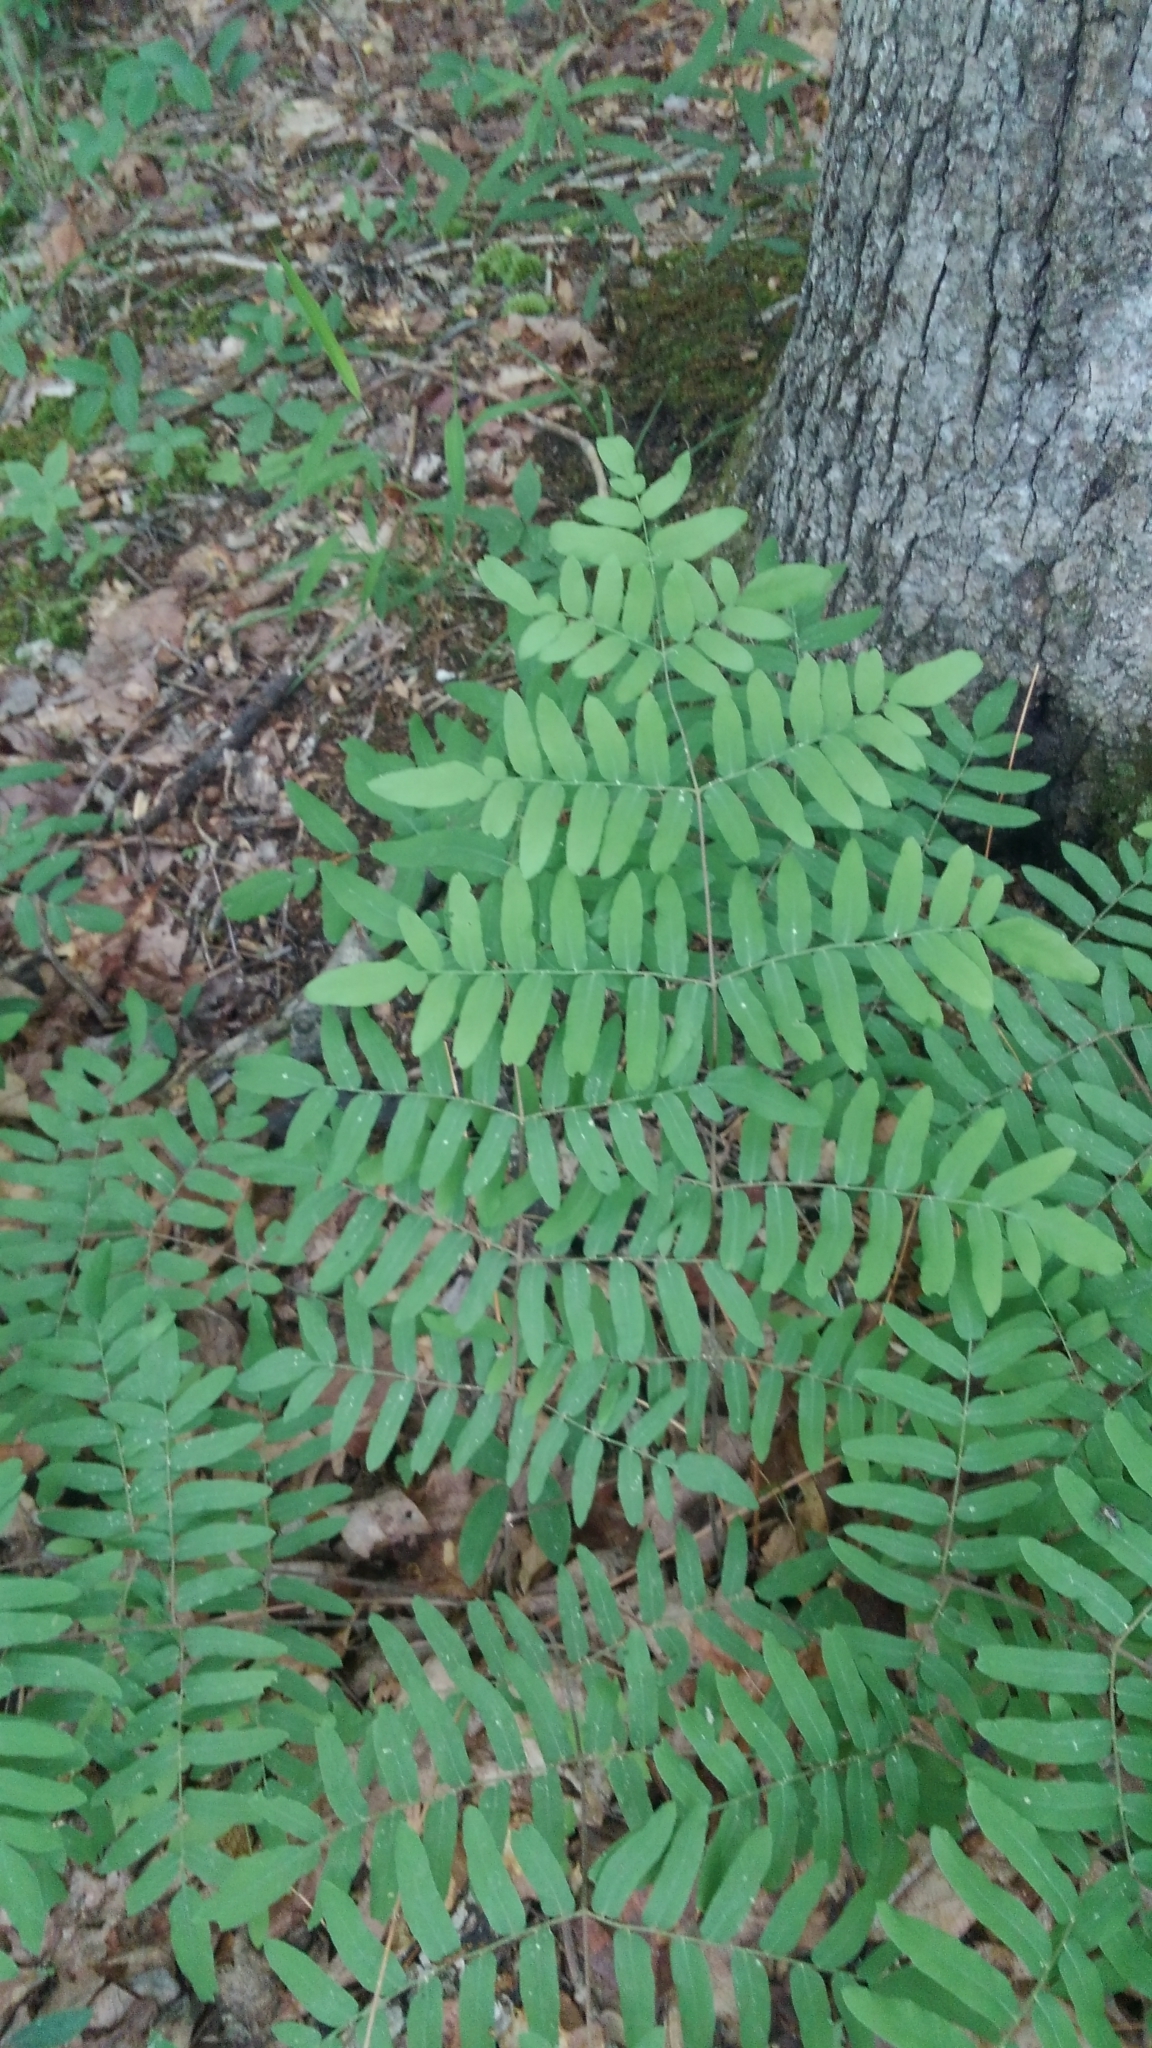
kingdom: Plantae
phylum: Tracheophyta
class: Polypodiopsida
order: Osmundales
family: Osmundaceae
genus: Osmunda
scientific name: Osmunda spectabilis
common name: American royal fern
